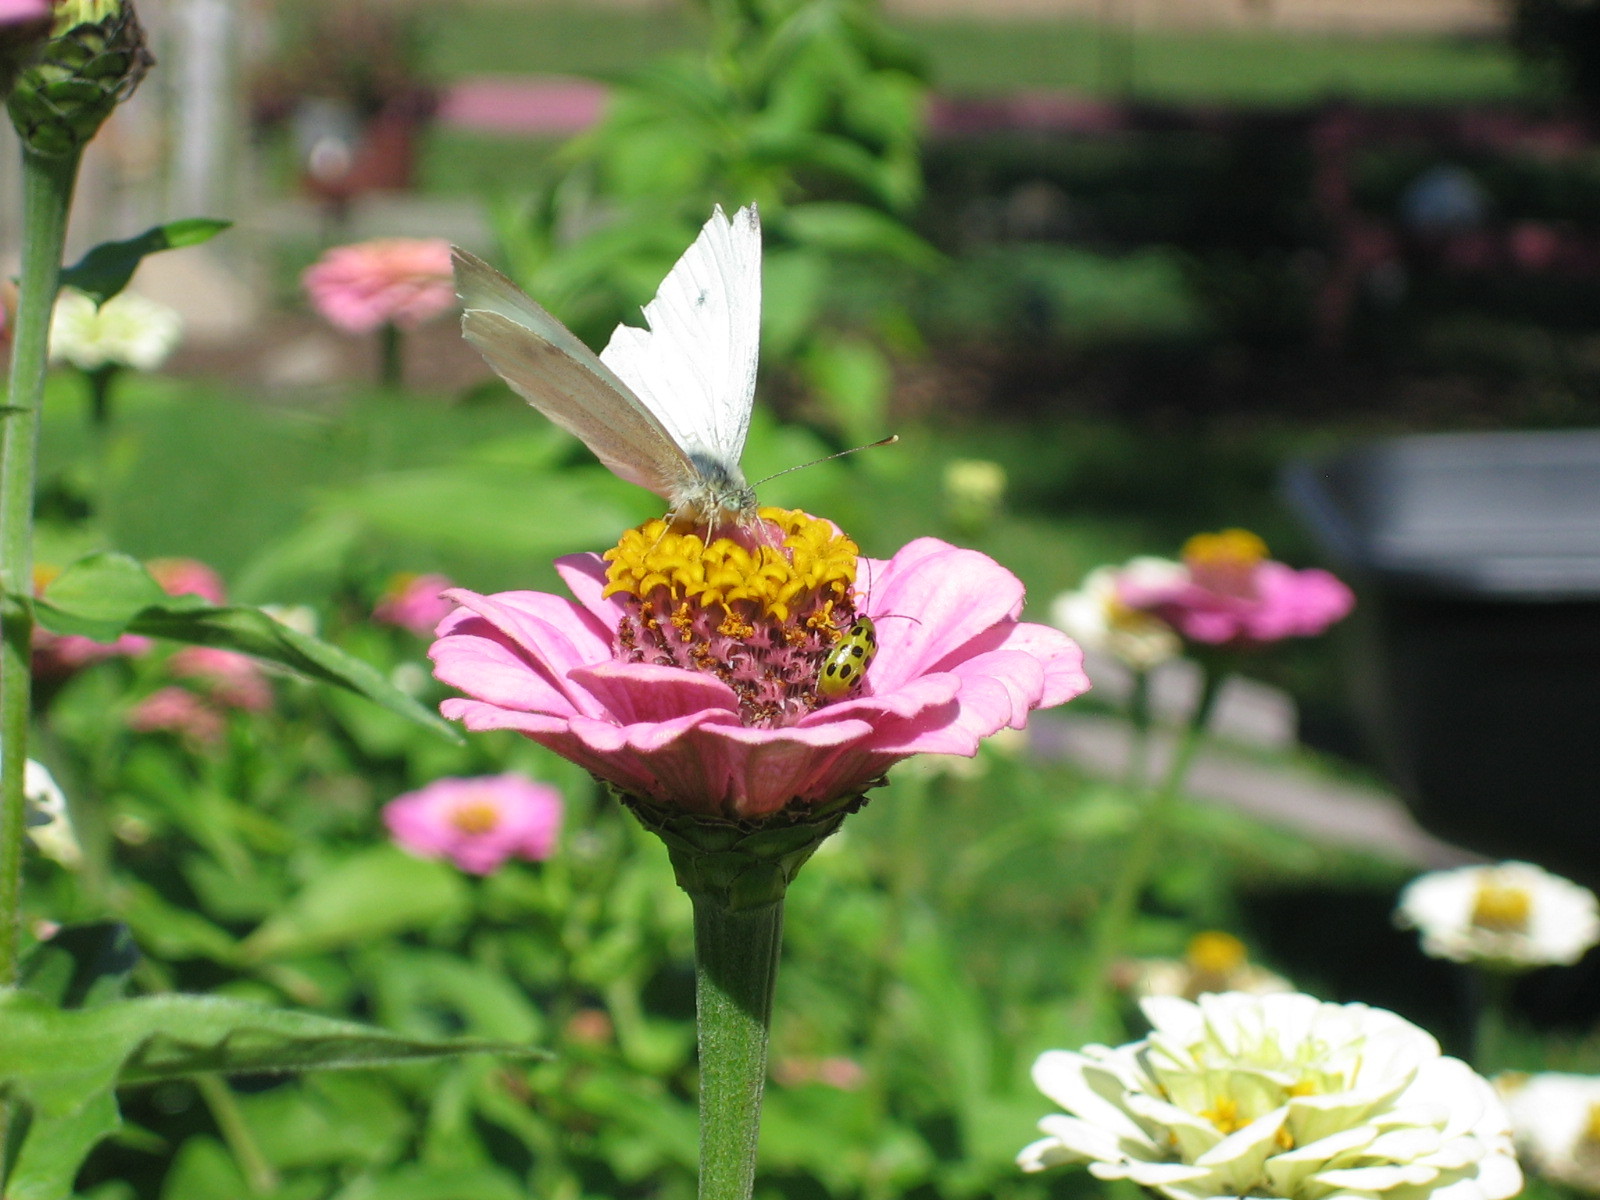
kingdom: Animalia
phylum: Arthropoda
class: Insecta
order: Lepidoptera
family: Pieridae
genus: Pieris
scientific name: Pieris rapae
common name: Small white
